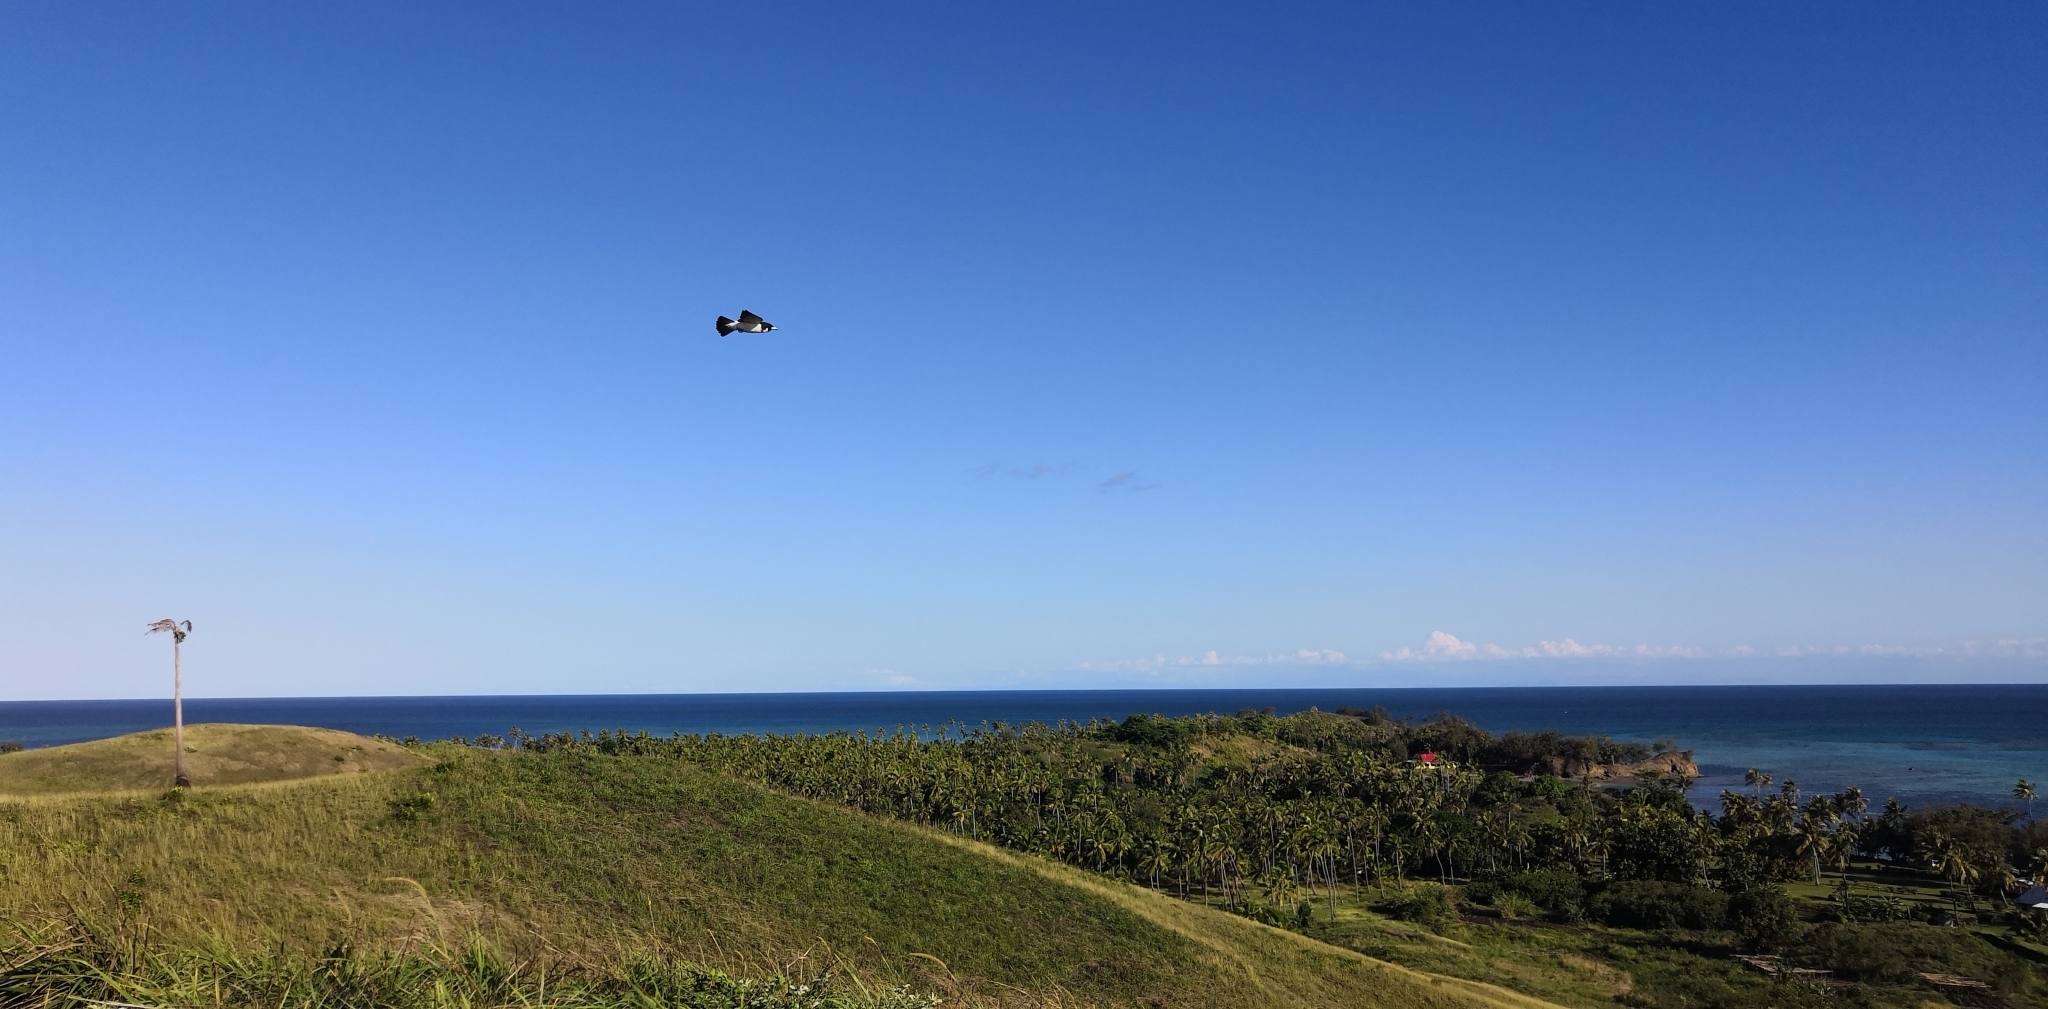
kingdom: Animalia
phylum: Chordata
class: Aves
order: Passeriformes
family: Artamidae
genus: Artamus
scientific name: Artamus mentalis
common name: Fiji woodswallow
